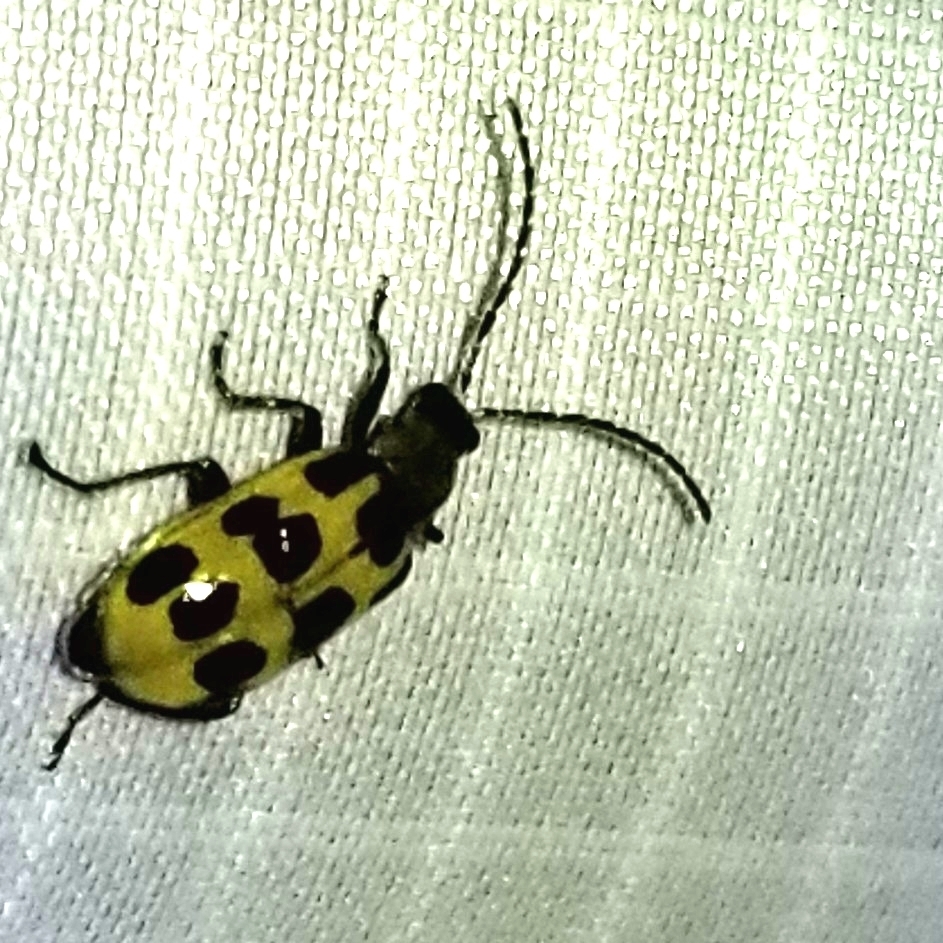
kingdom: Animalia
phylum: Arthropoda
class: Insecta
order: Coleoptera
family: Chrysomelidae
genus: Diabrotica
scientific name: Diabrotica undecimpunctata
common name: Spotted cucumber beetle
